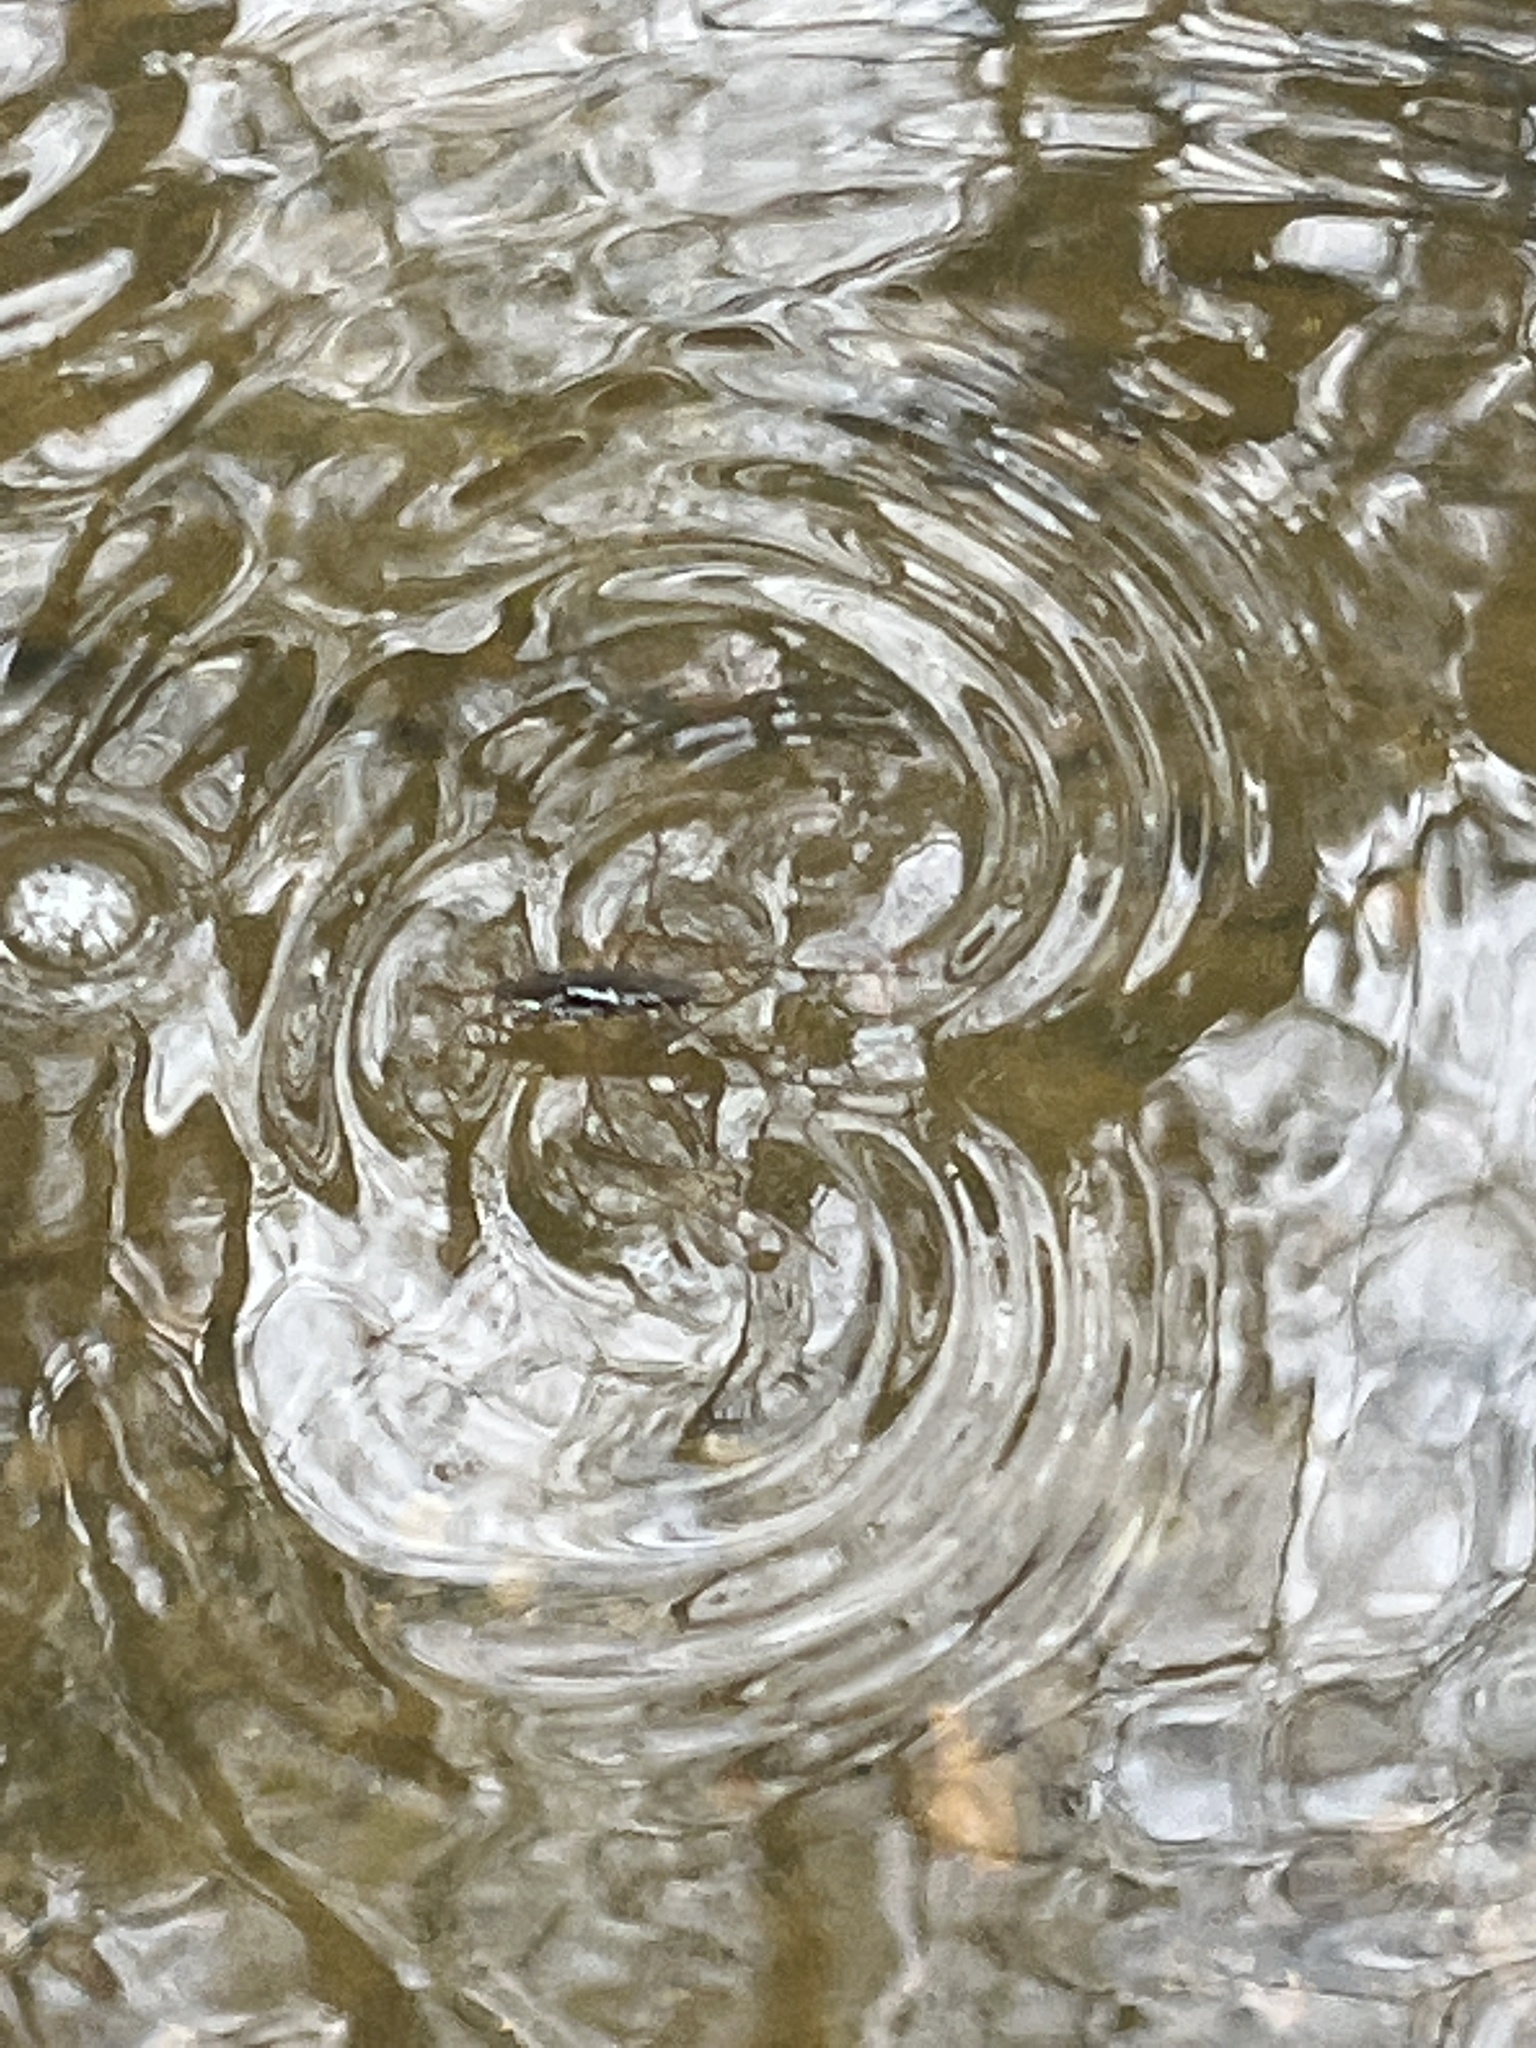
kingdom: Animalia
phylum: Arthropoda
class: Insecta
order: Hemiptera
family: Gerridae
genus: Aquarius
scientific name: Aquarius
